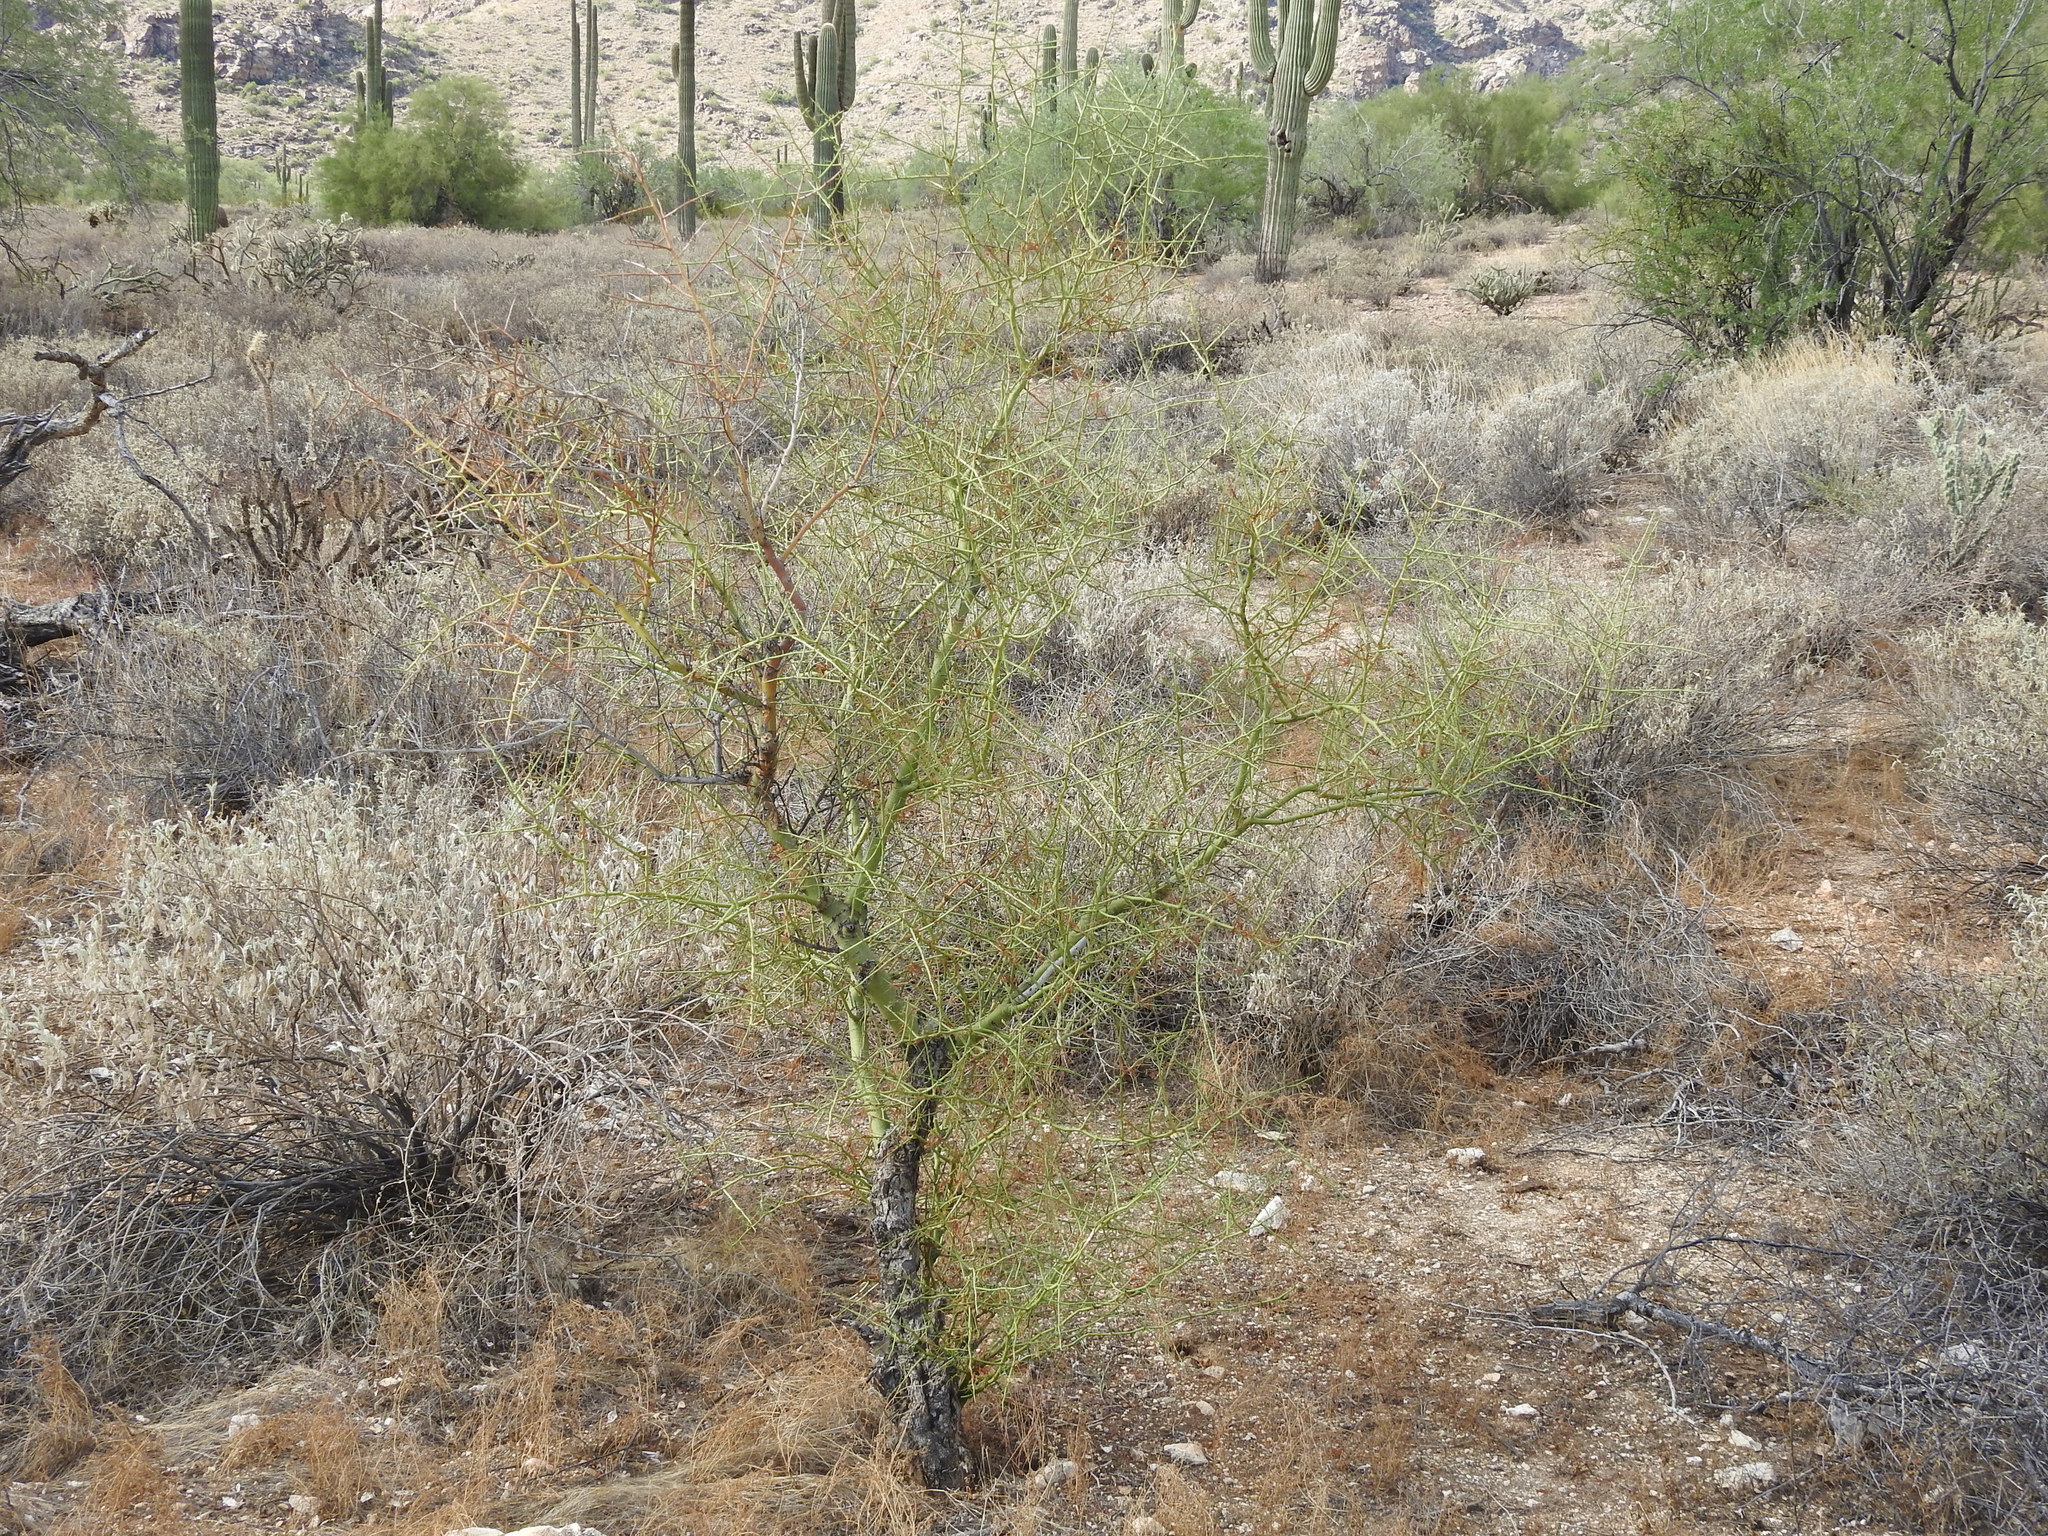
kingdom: Plantae
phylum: Tracheophyta
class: Magnoliopsida
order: Fabales
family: Fabaceae
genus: Parkinsonia
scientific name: Parkinsonia microphylla
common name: Yellow paloverde
